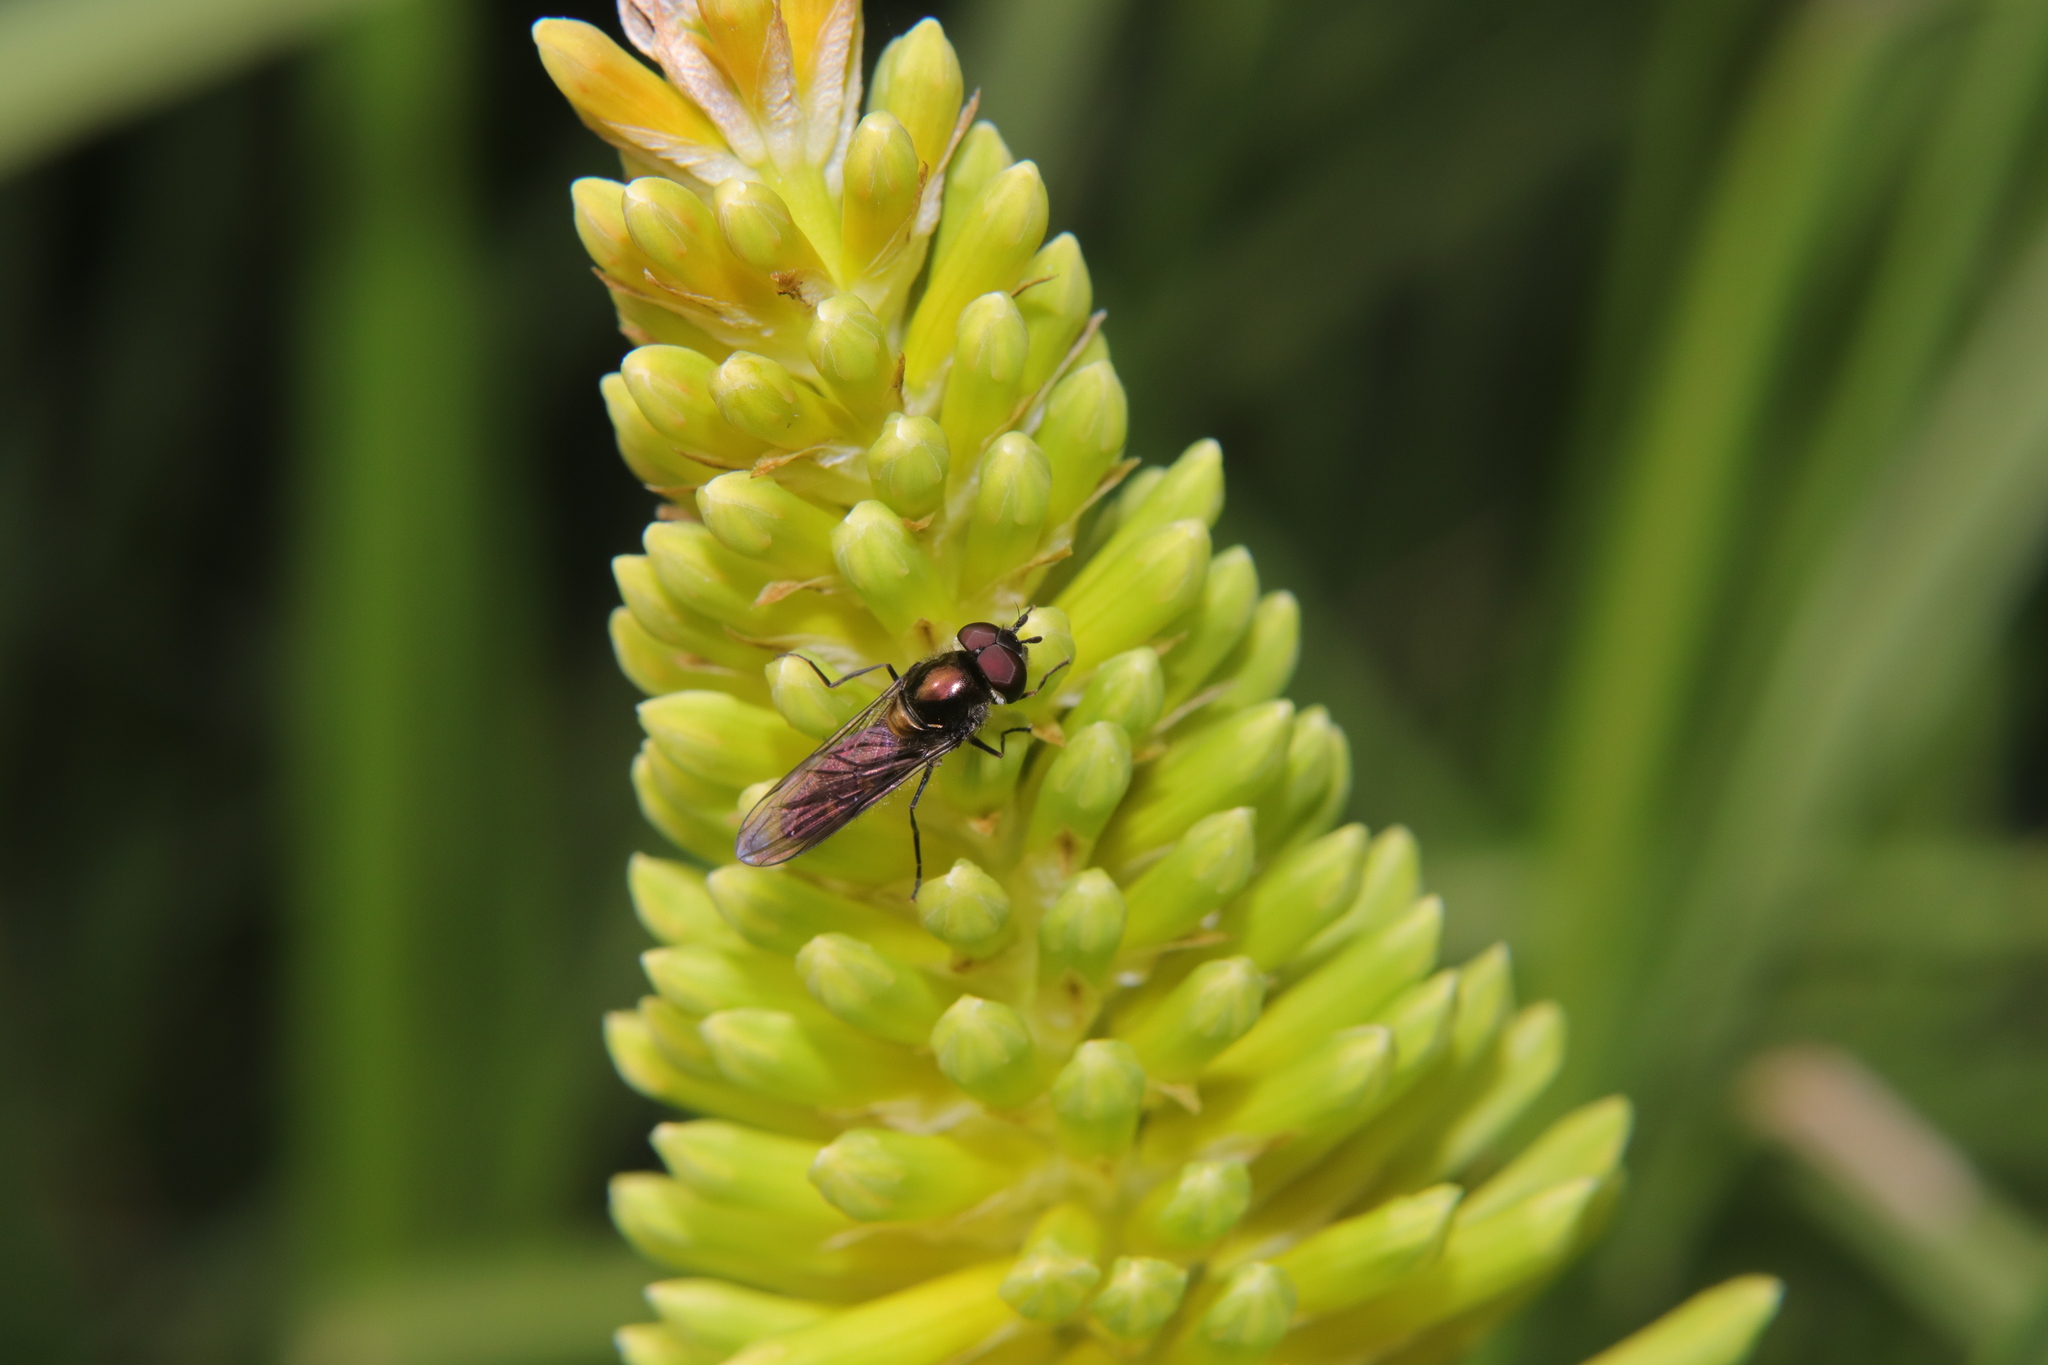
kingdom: Animalia
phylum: Arthropoda
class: Insecta
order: Diptera
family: Syrphidae
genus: Melangyna
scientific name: Melangyna novaezelandiae
